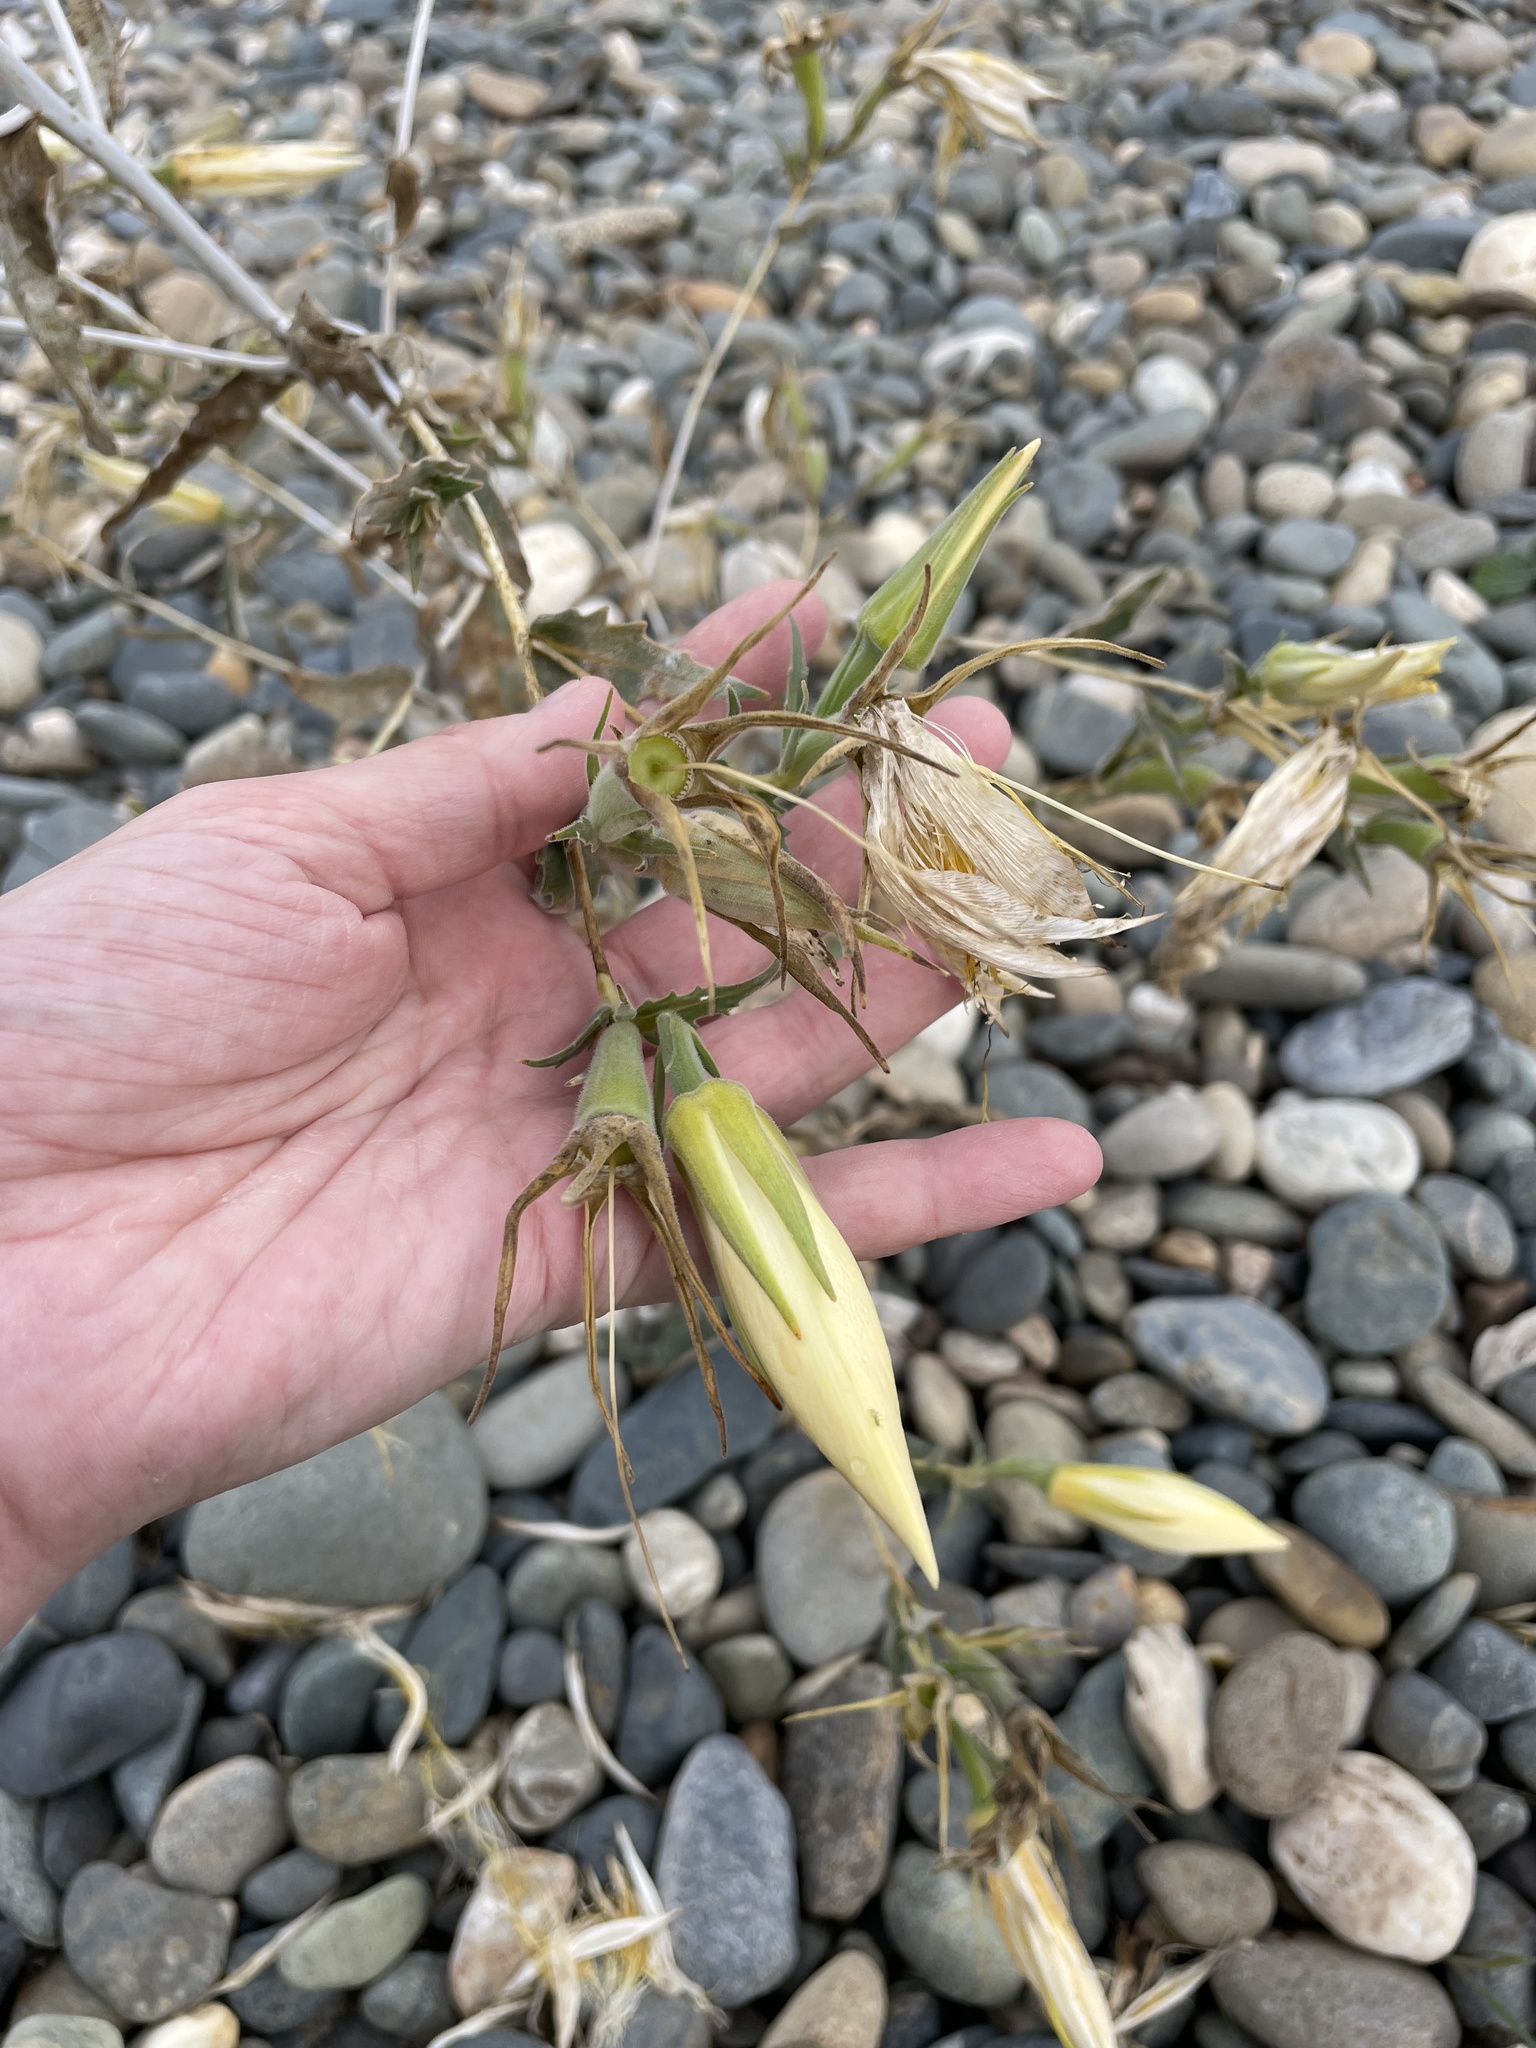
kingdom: Plantae
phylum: Tracheophyta
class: Magnoliopsida
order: Cornales
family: Loasaceae
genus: Mentzelia
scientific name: Mentzelia laevicaulis
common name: Smooth-stem blazingstar
